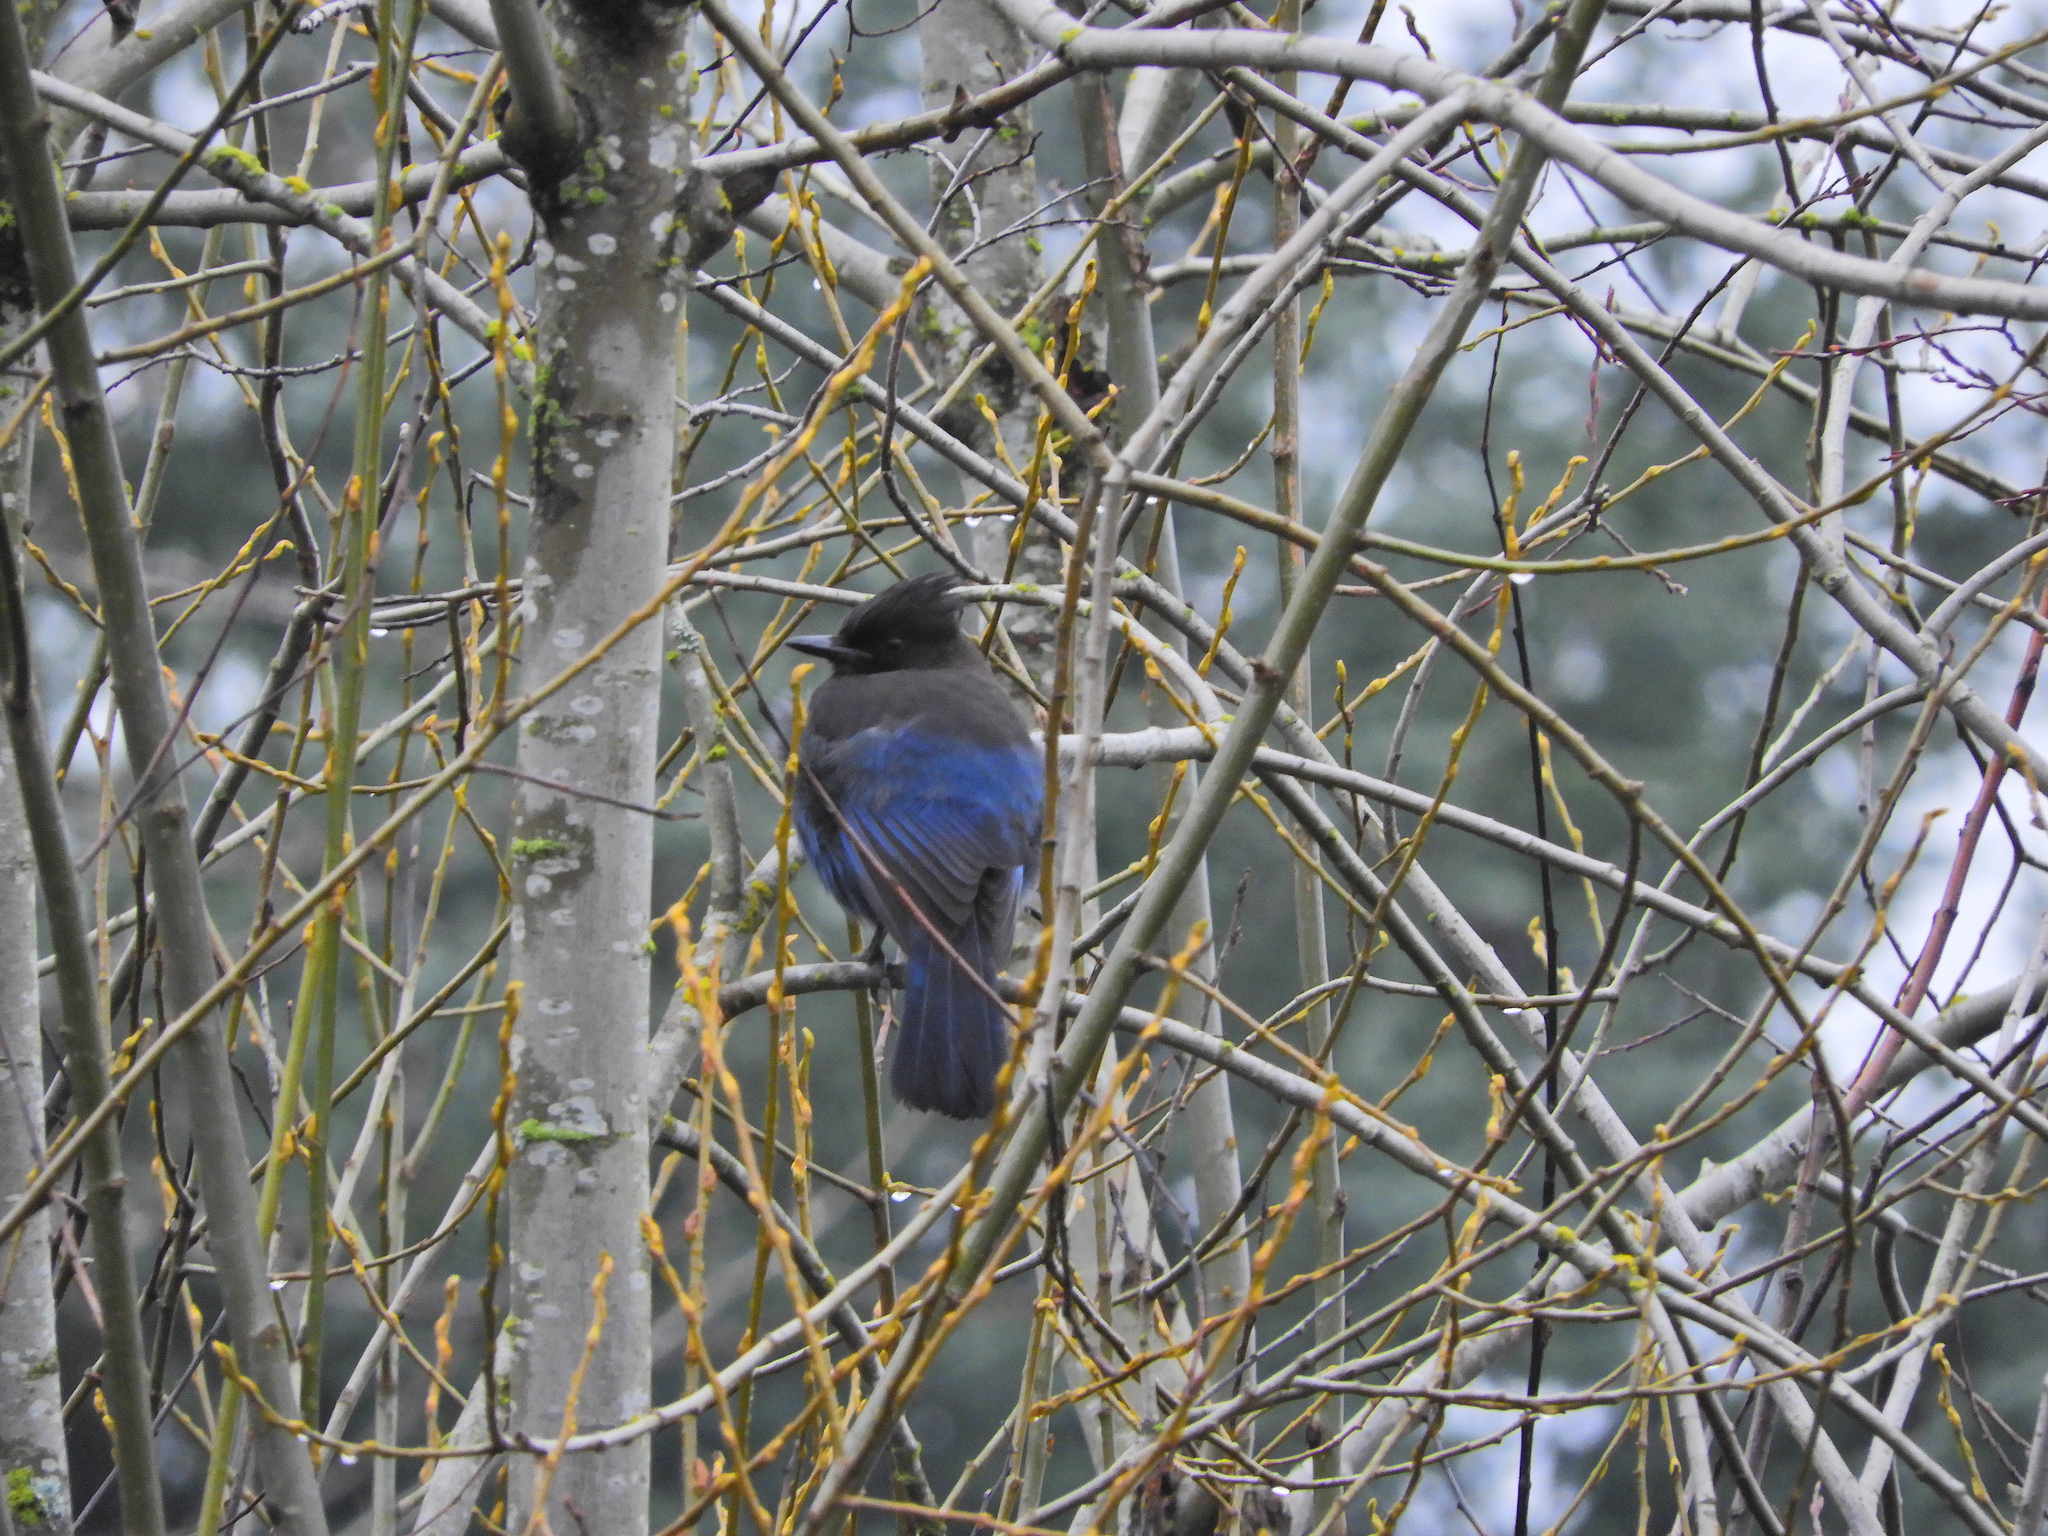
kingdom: Animalia
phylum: Chordata
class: Aves
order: Passeriformes
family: Corvidae
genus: Cyanocitta
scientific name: Cyanocitta stelleri
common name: Steller's jay
